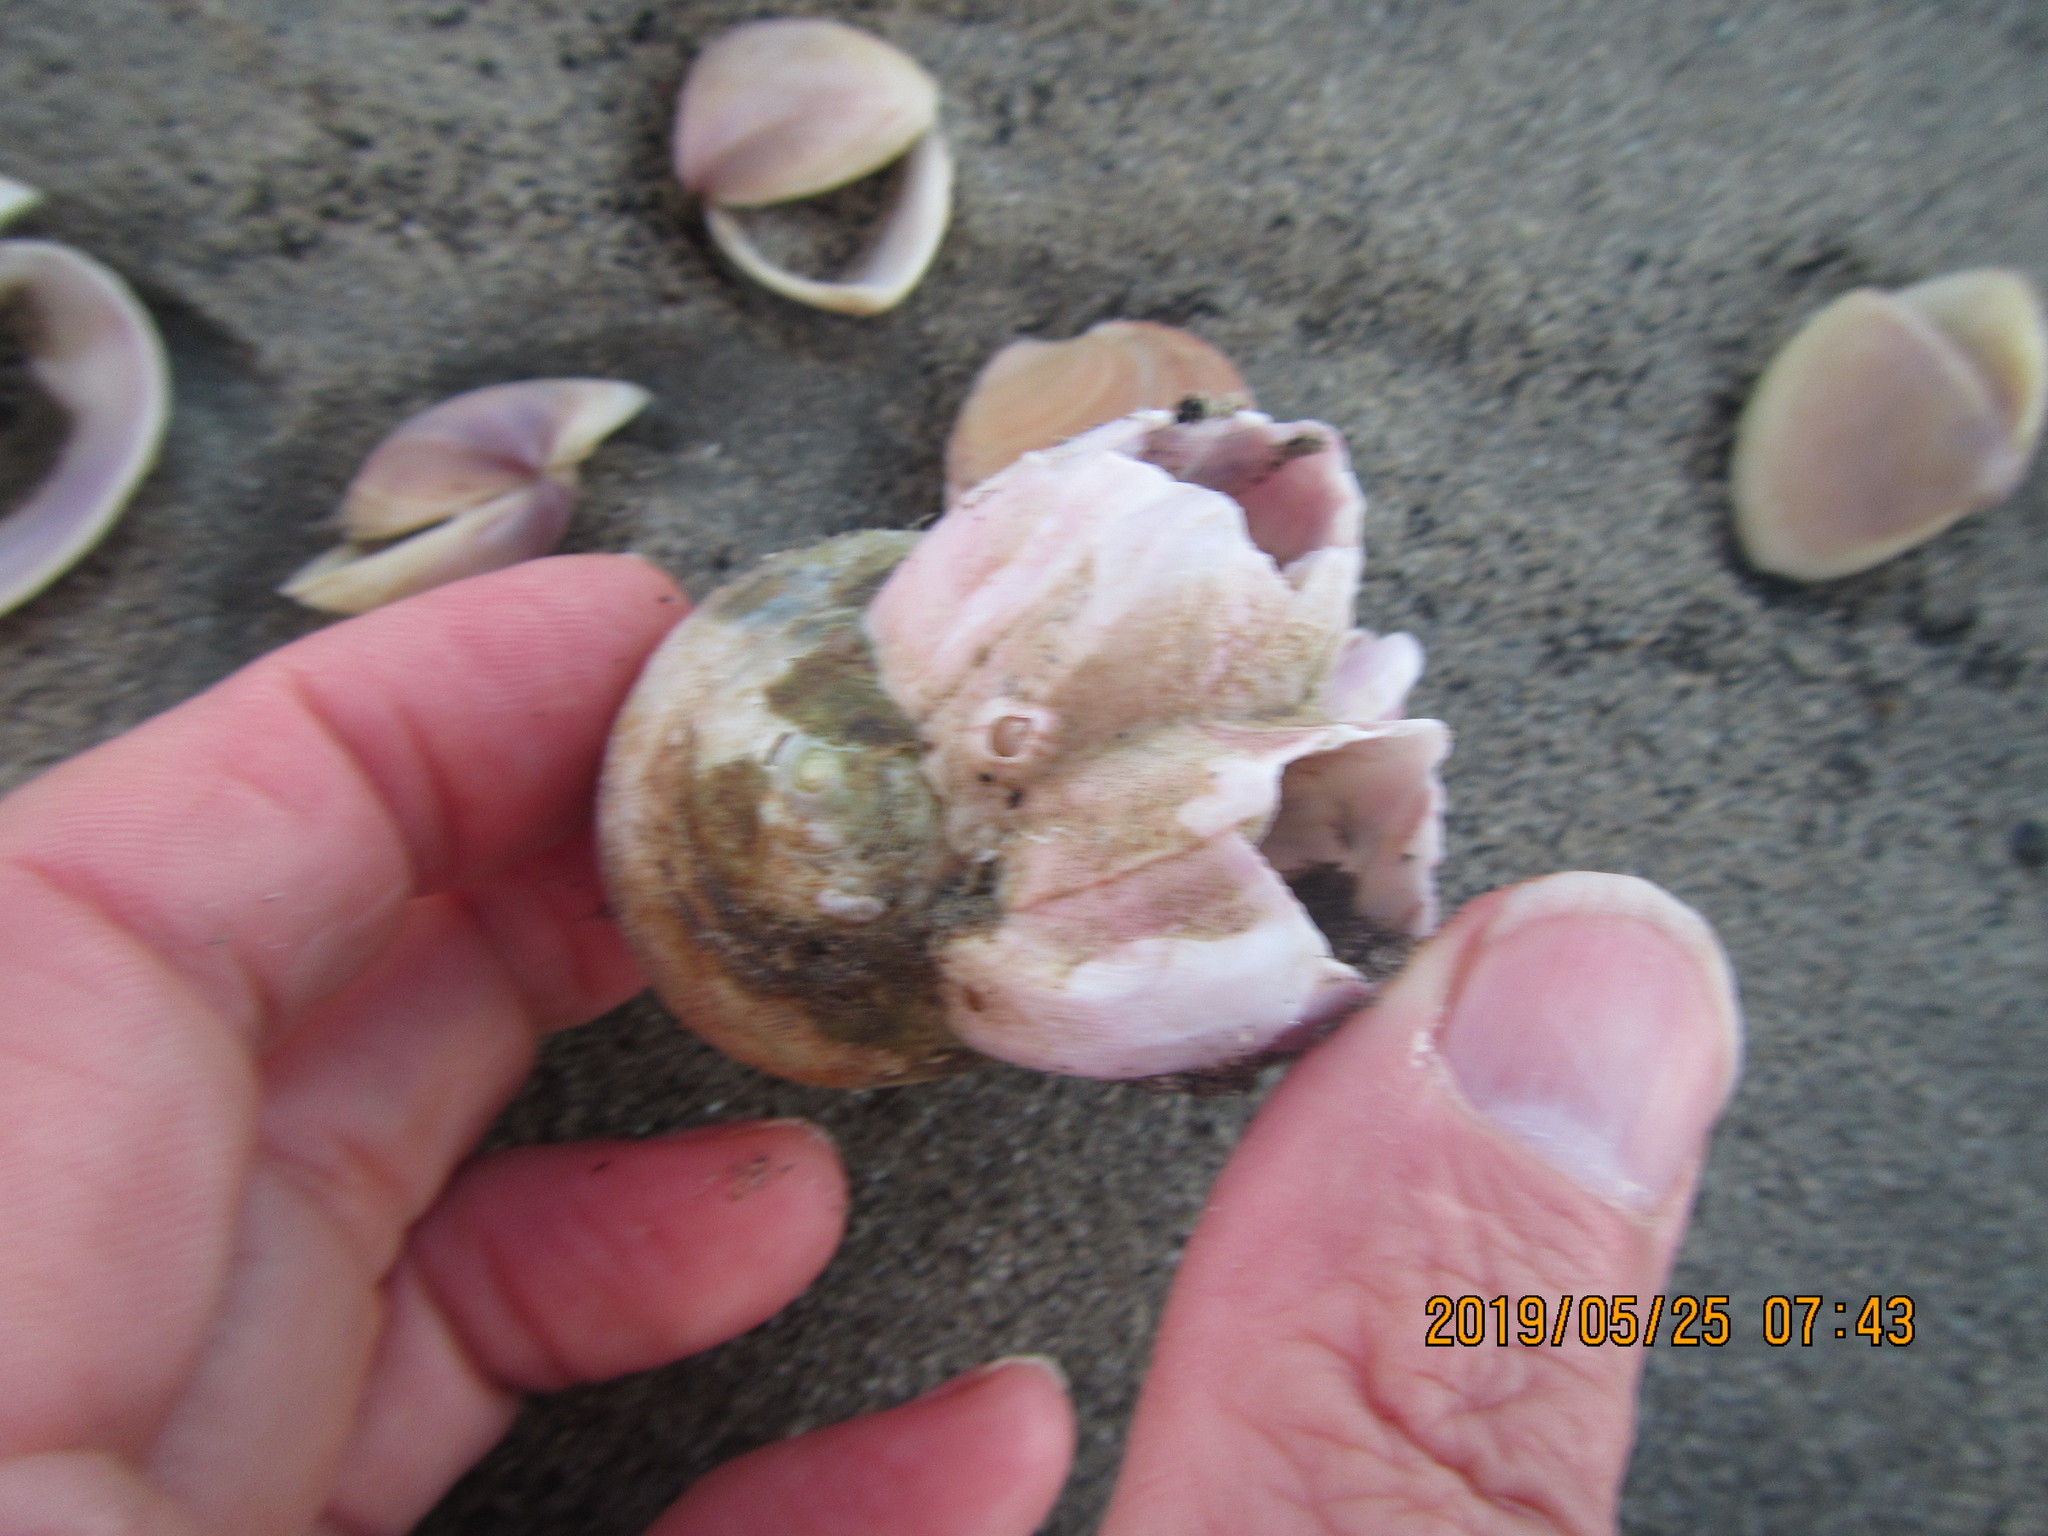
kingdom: Animalia
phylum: Arthropoda
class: Maxillopoda
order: Sessilia
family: Balanidae
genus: Notomegabalanus
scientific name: Notomegabalanus decorus
